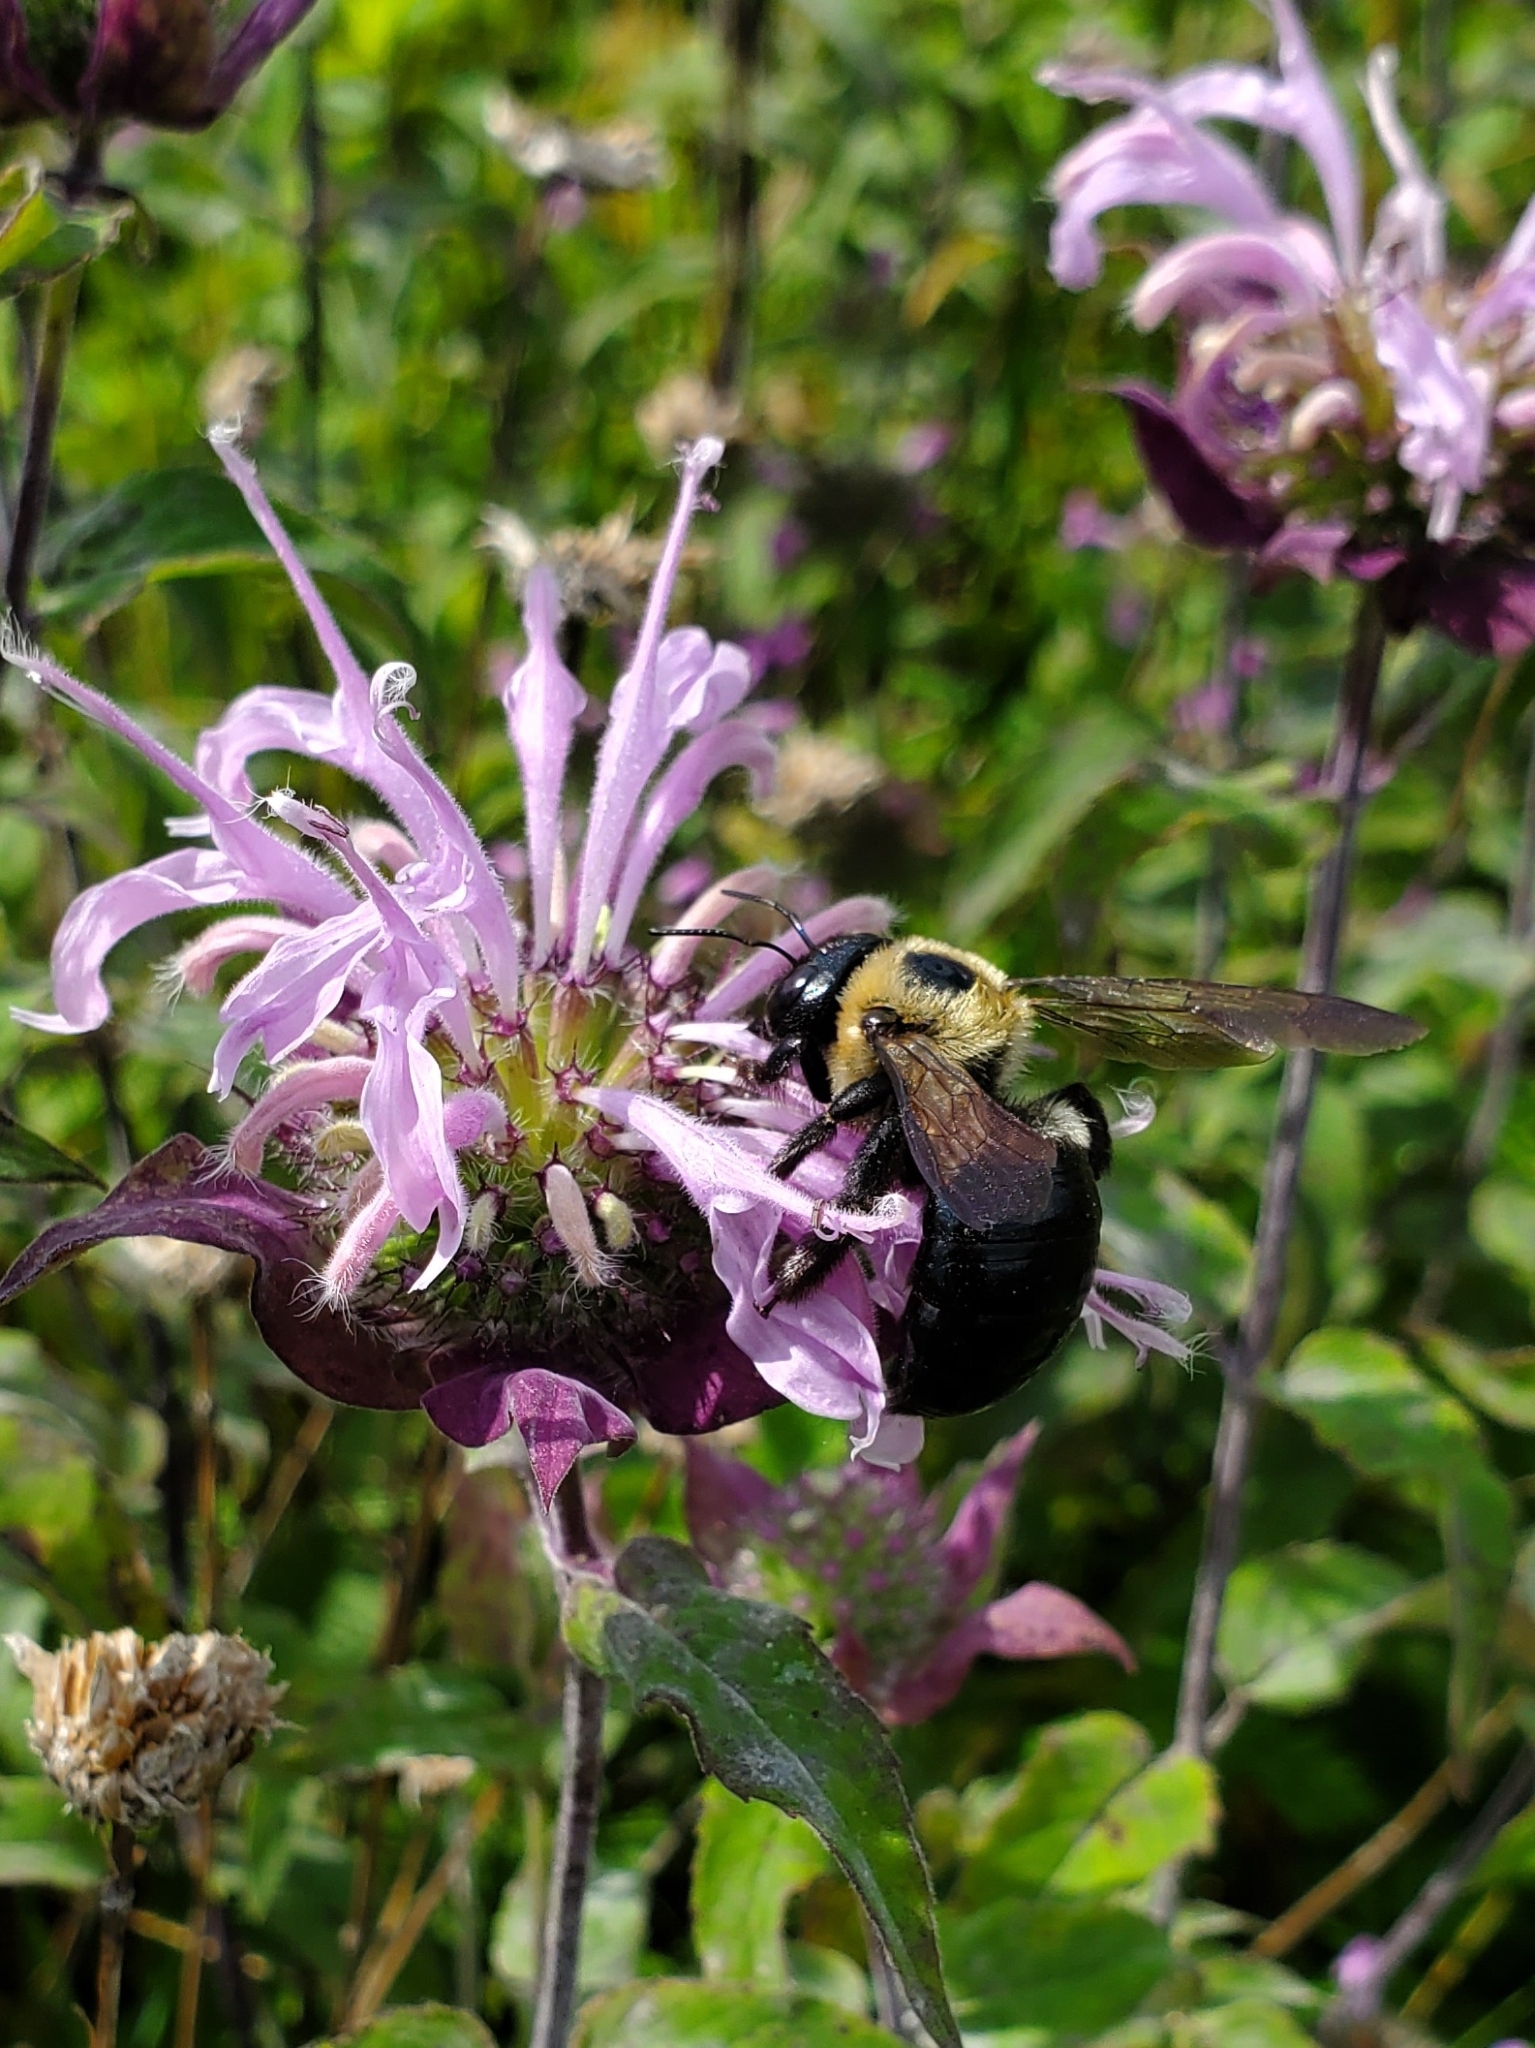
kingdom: Animalia
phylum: Arthropoda
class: Insecta
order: Hymenoptera
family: Apidae
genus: Xylocopa
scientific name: Xylocopa virginica
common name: Carpenter bee
